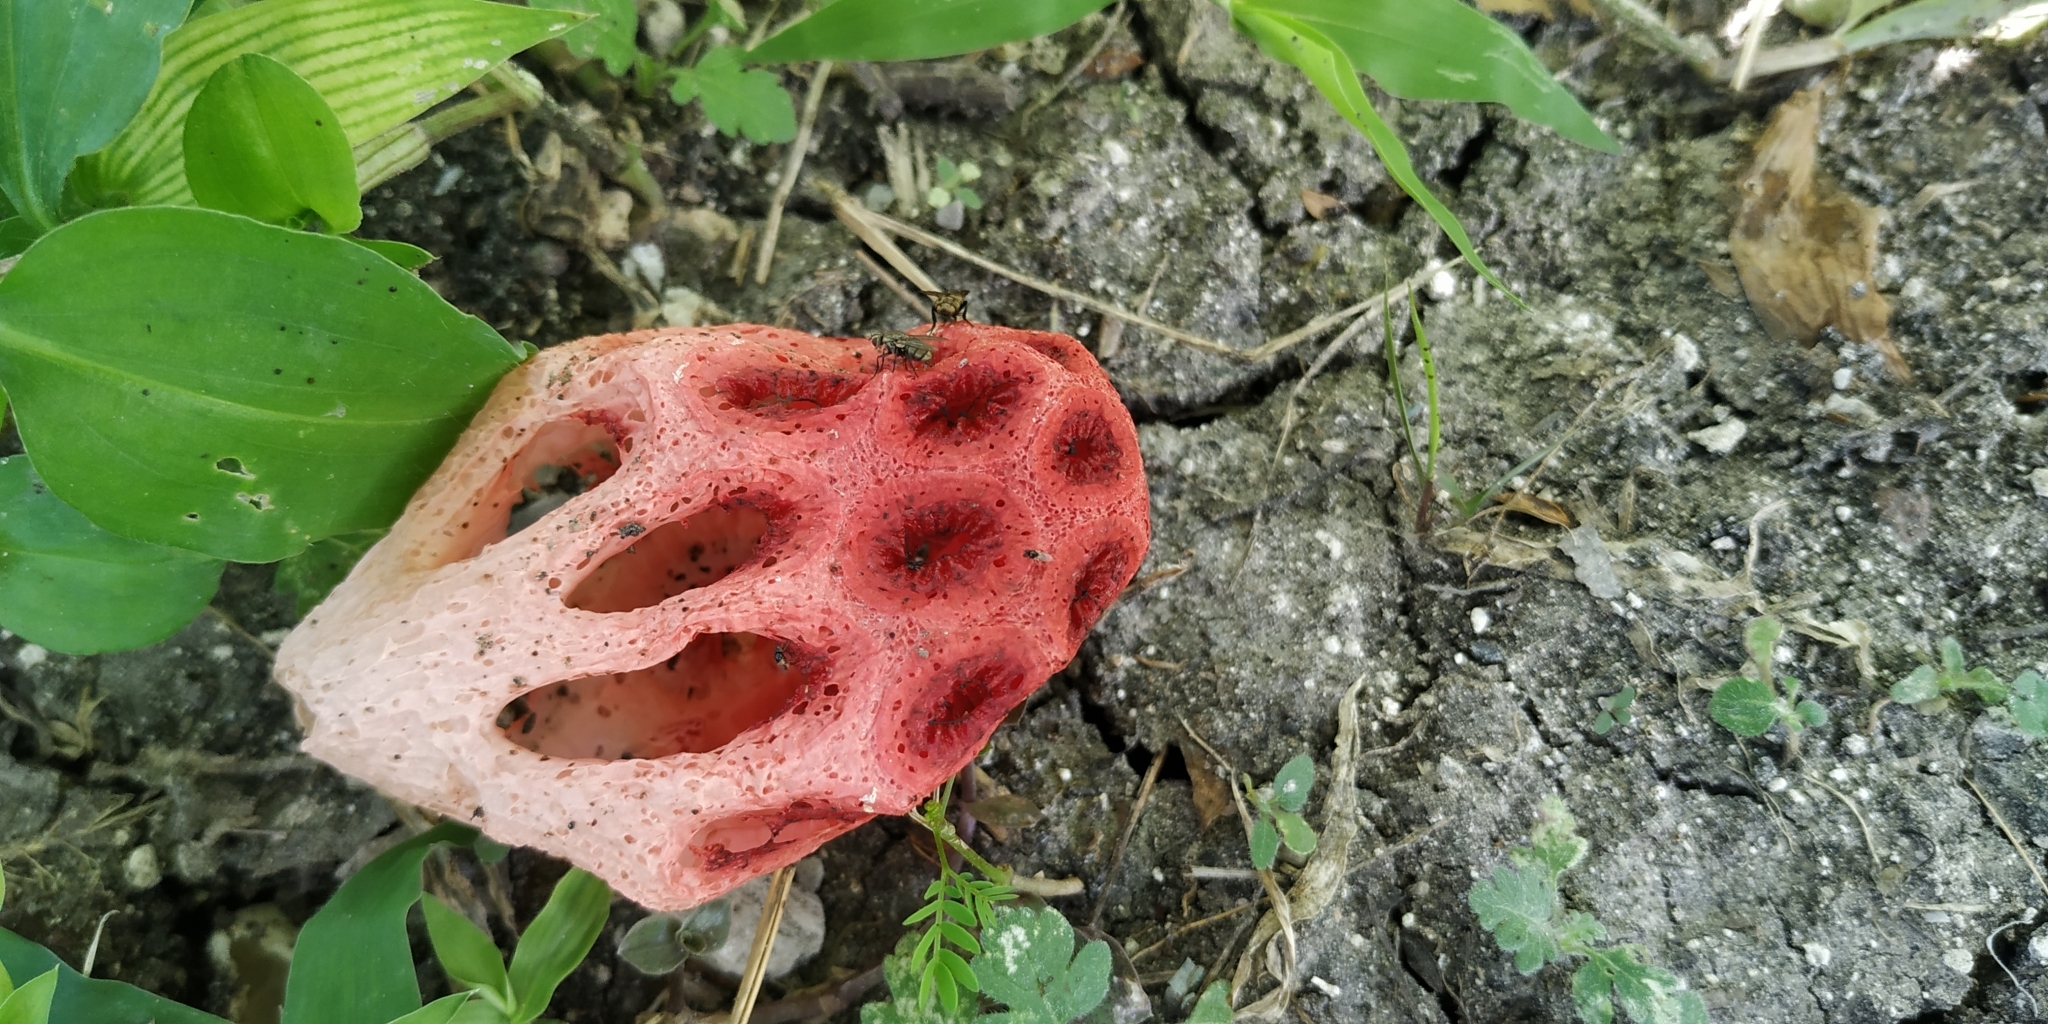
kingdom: Fungi
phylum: Basidiomycota
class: Agaricomycetes
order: Phallales
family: Phallaceae
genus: Clathrus
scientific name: Clathrus crispatus
